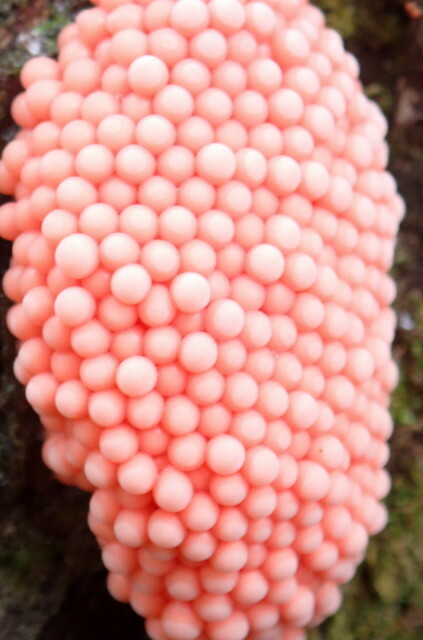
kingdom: Animalia
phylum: Mollusca
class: Gastropoda
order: Architaenioglossa
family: Ampullariidae
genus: Pomacea
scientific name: Pomacea maculata
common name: Giant applesnail
